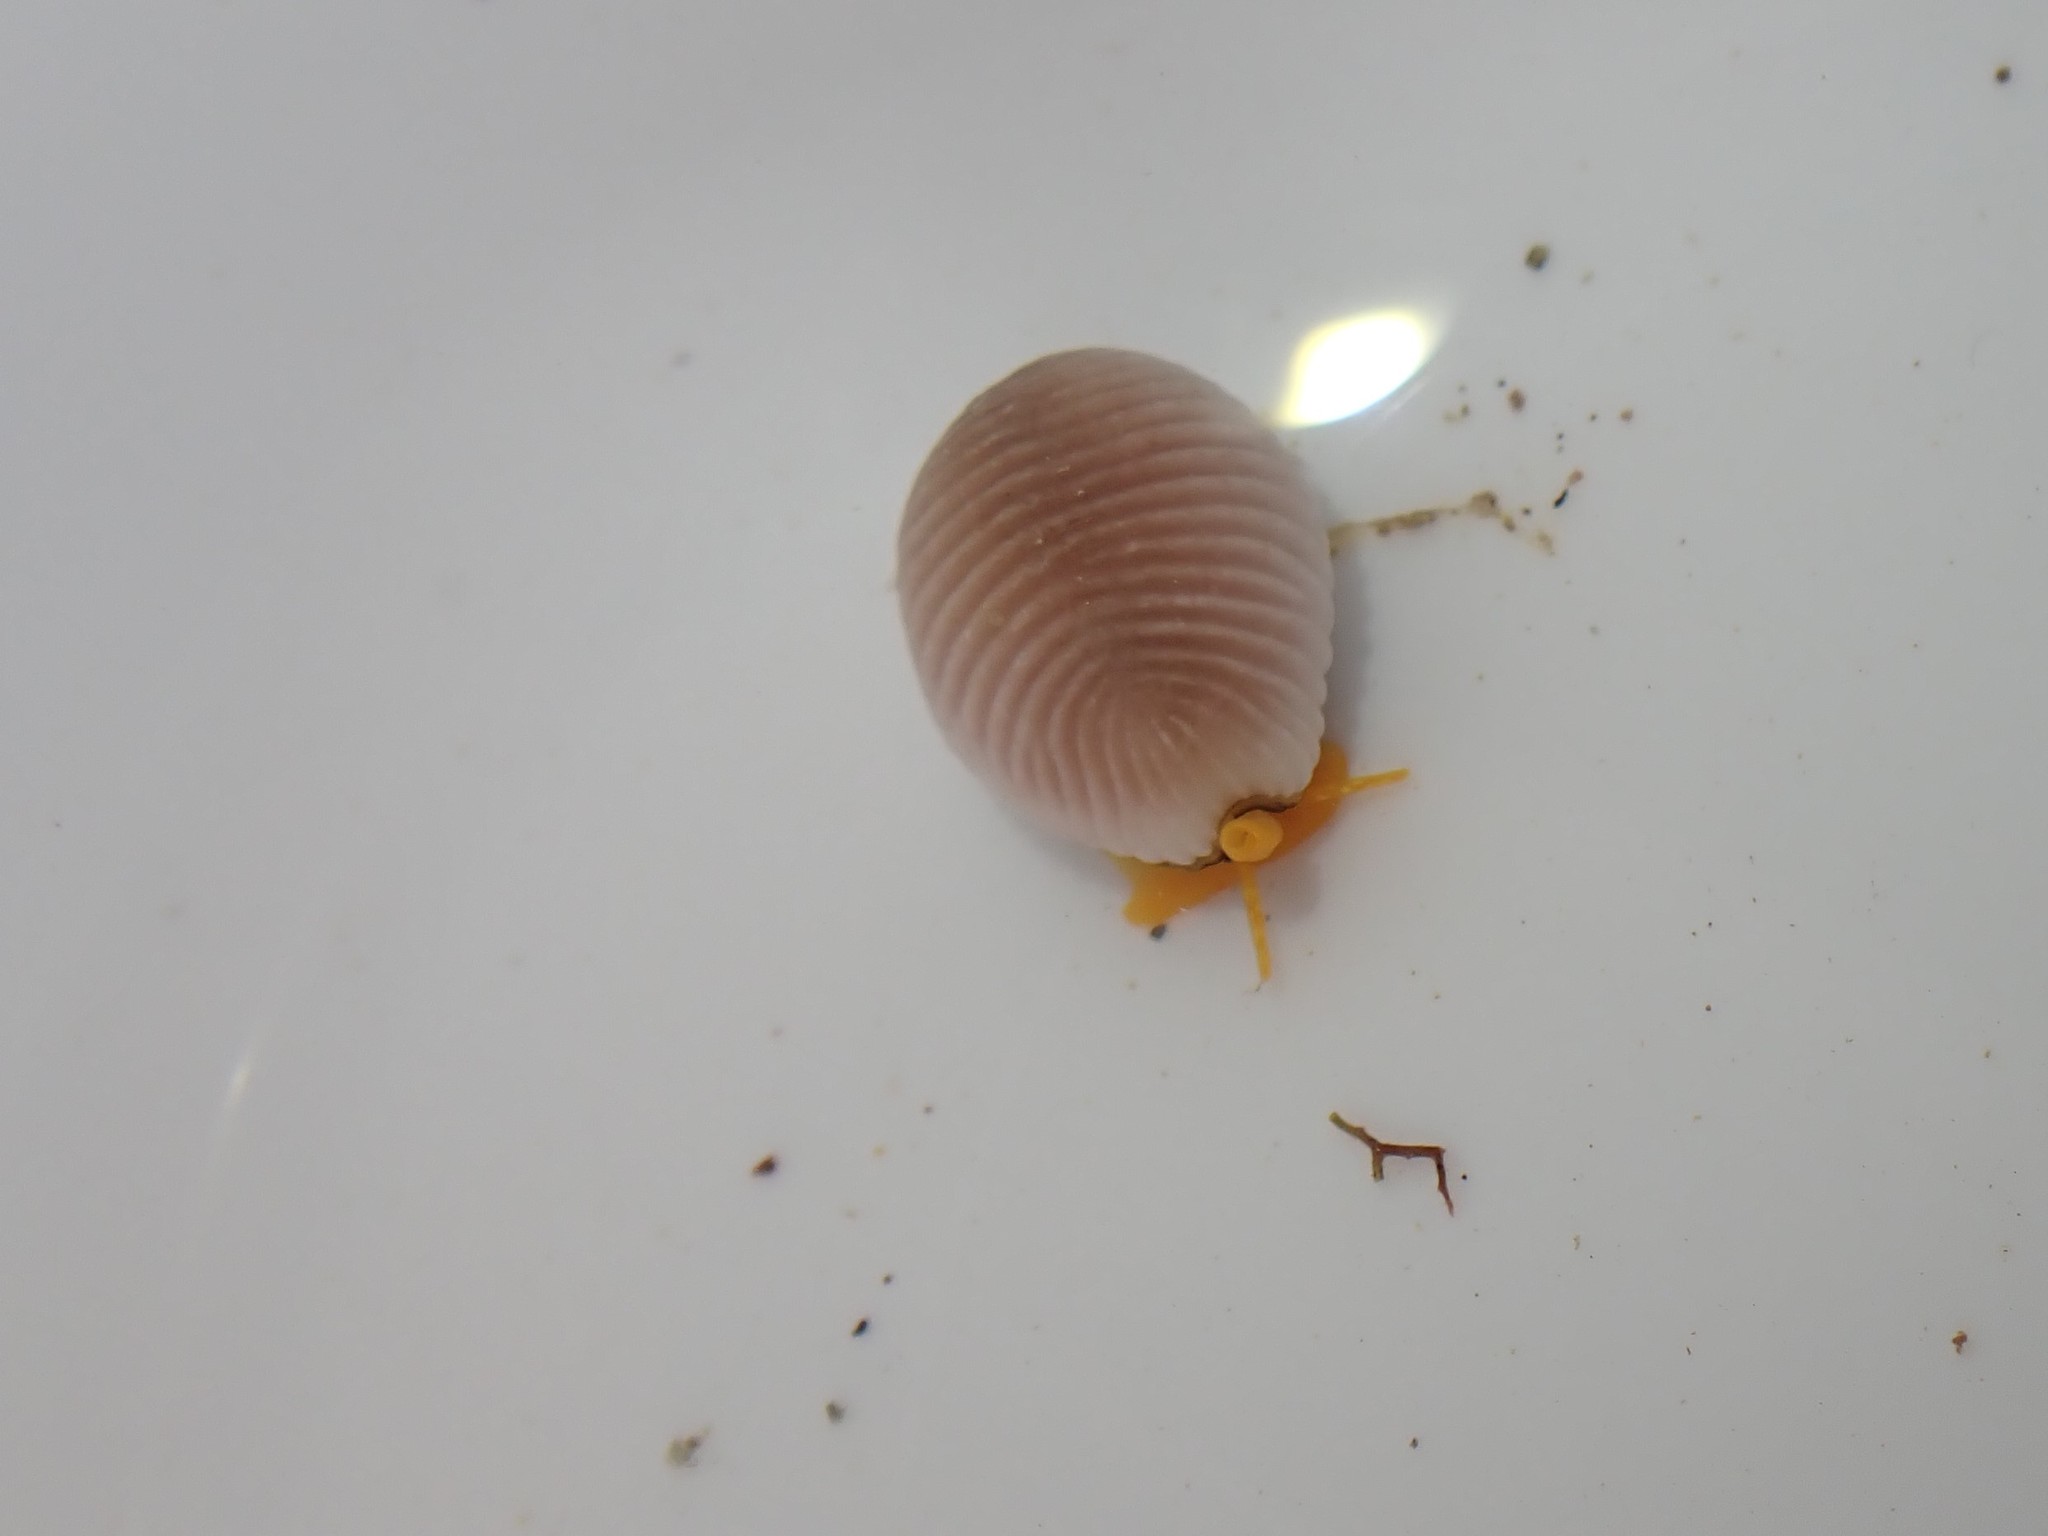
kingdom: Animalia
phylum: Mollusca
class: Gastropoda
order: Littorinimorpha
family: Triviidae
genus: Trivia
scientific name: Trivia arctica
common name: Arctic cowrie
